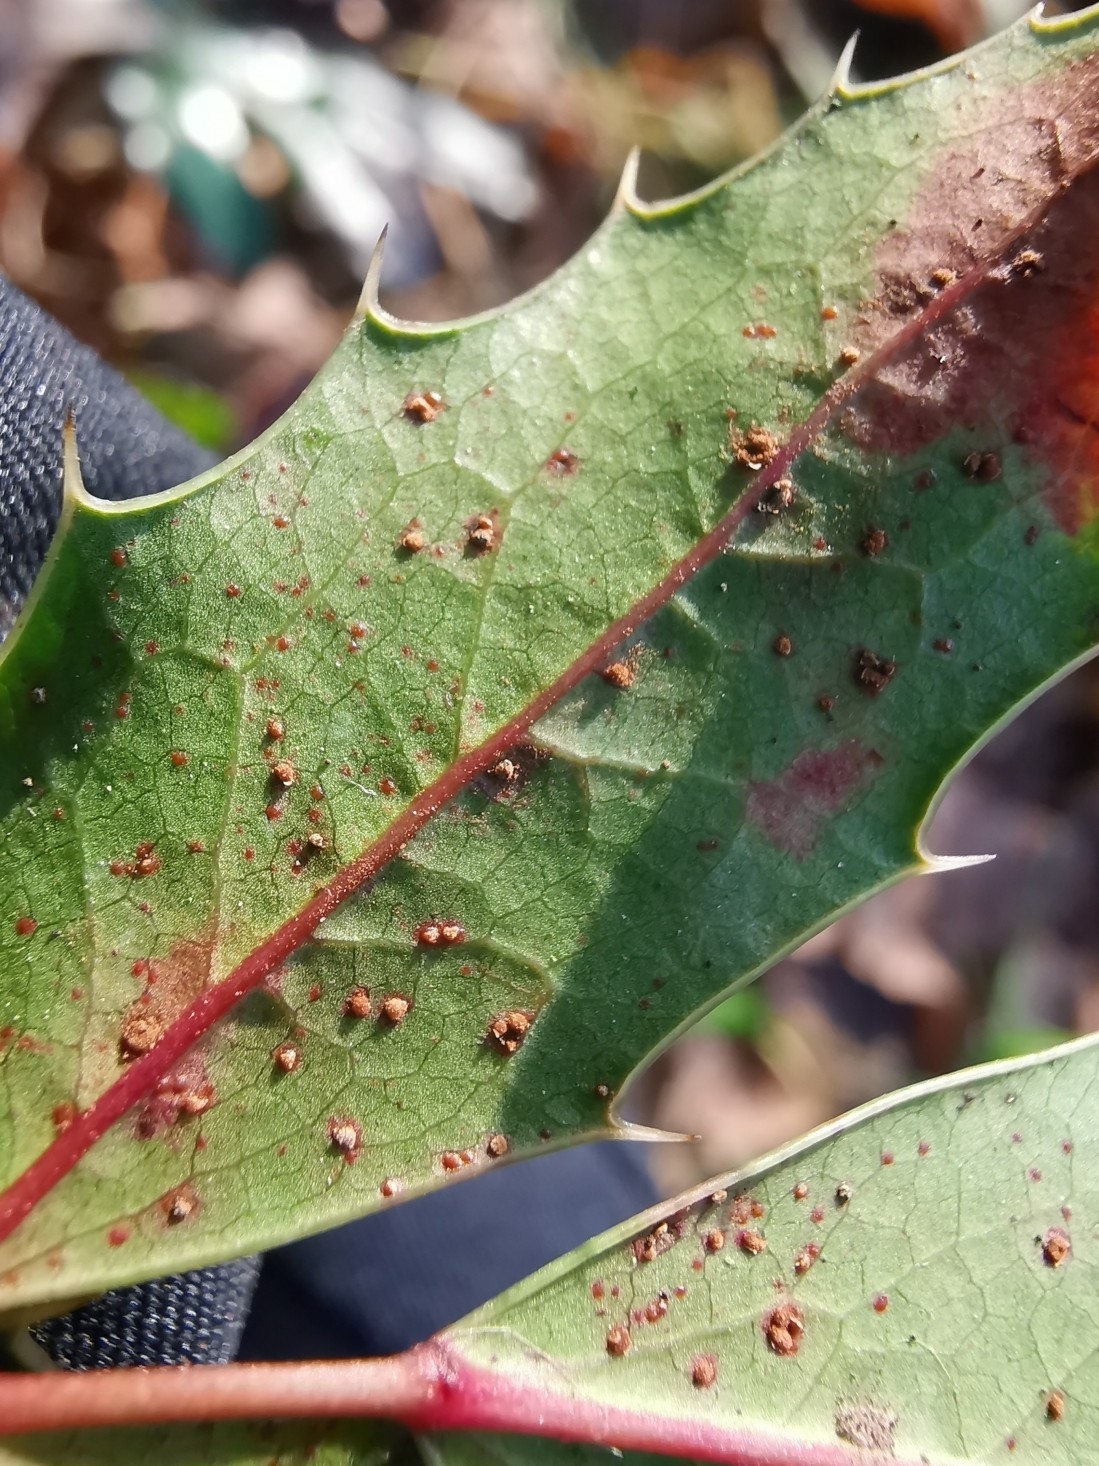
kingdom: Fungi
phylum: Basidiomycota
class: Pucciniomycetes
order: Pucciniales
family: Pucciniaceae
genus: Cumminsiella
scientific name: Cumminsiella mirabilissima
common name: Mahonia rust
